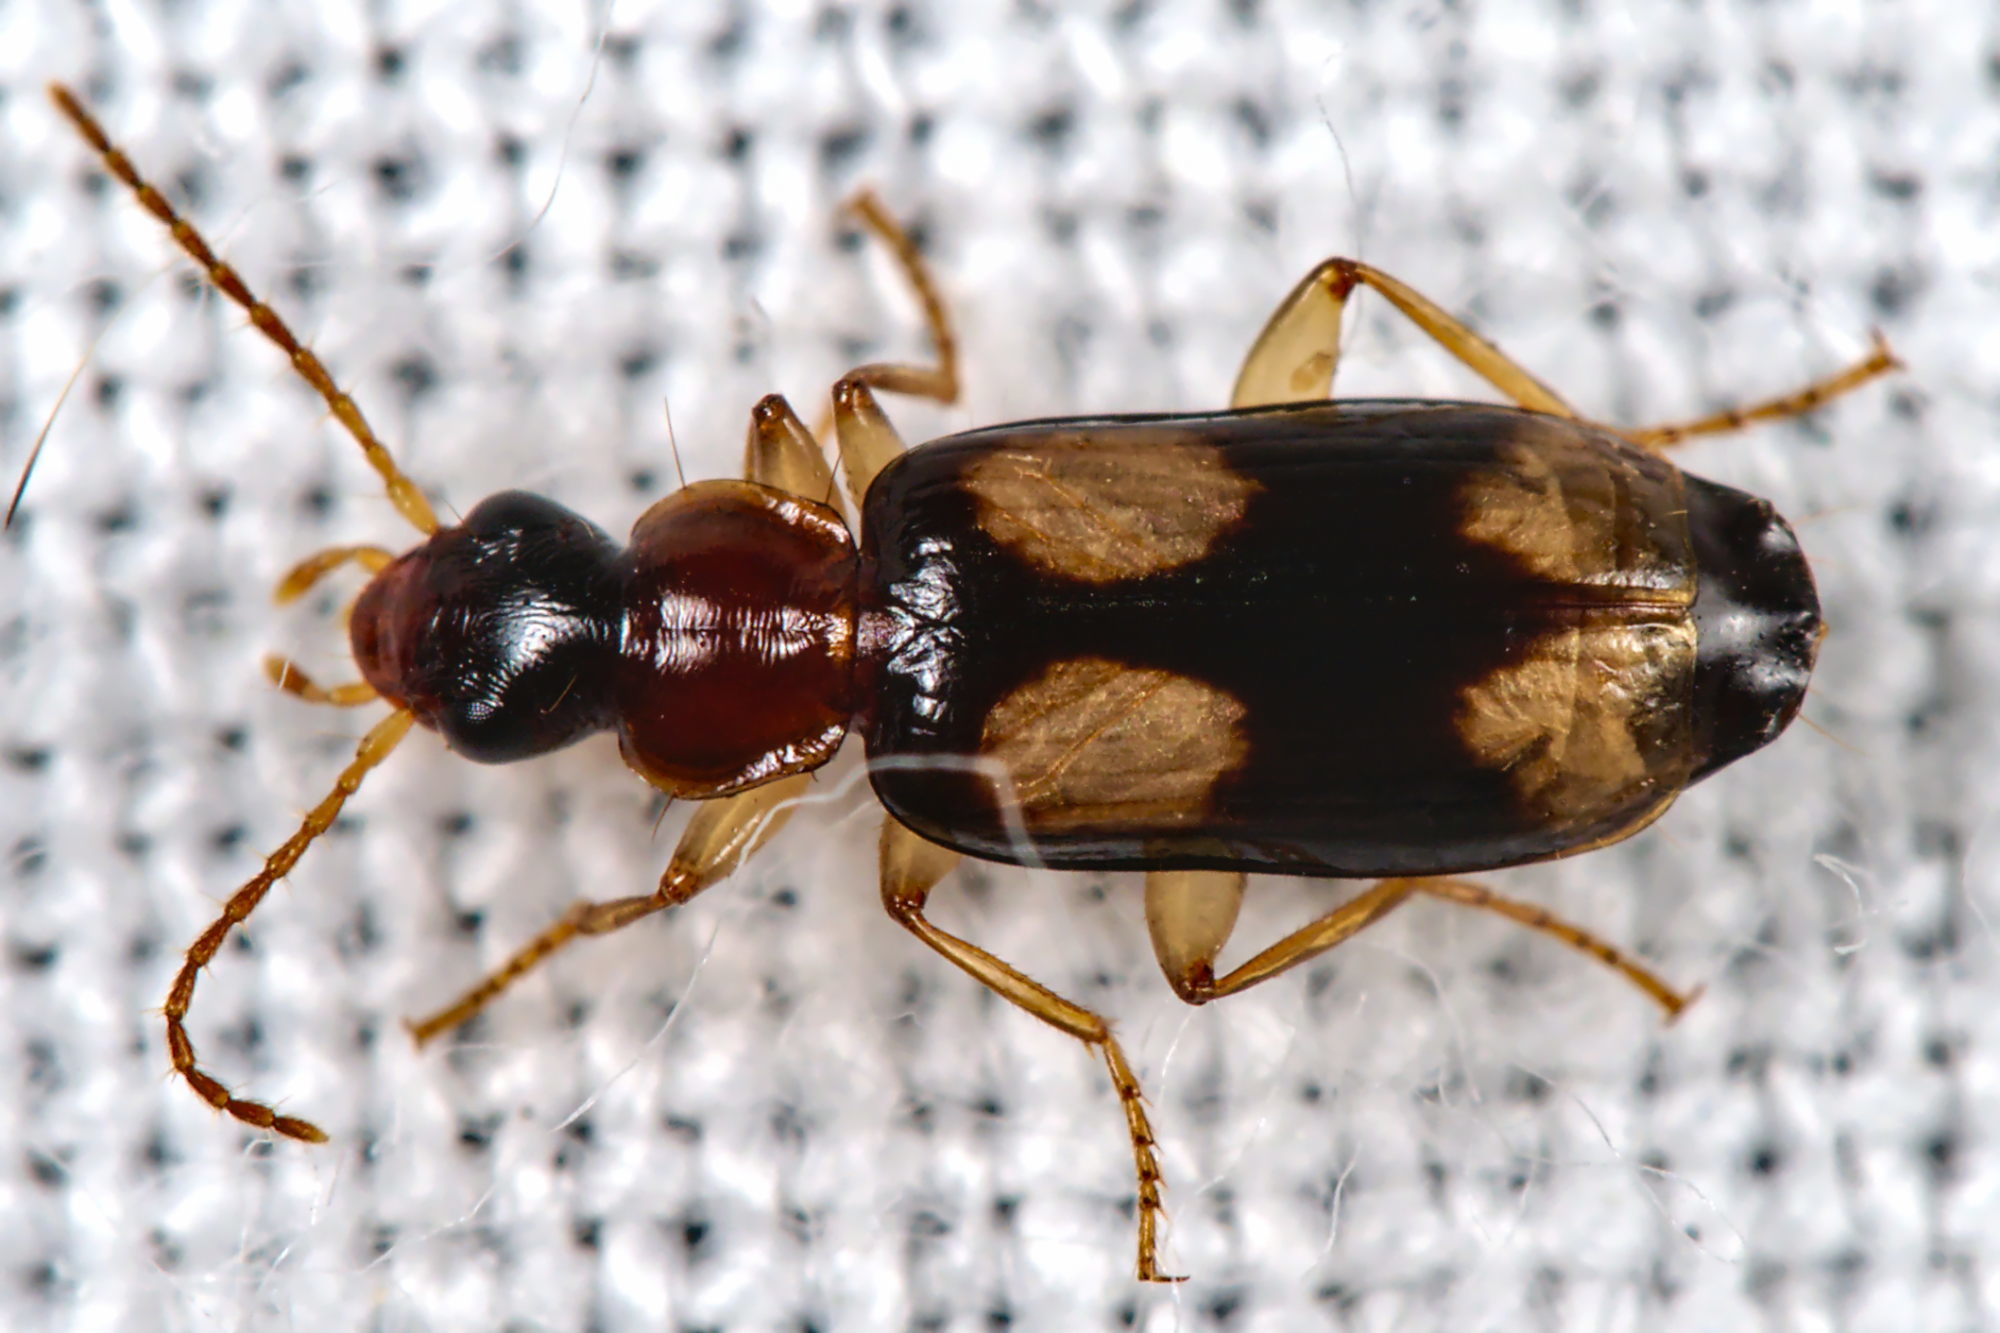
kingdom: Animalia
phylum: Arthropoda
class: Insecta
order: Coleoptera
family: Carabidae
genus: Dromius
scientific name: Dromius quadrimaculatus
